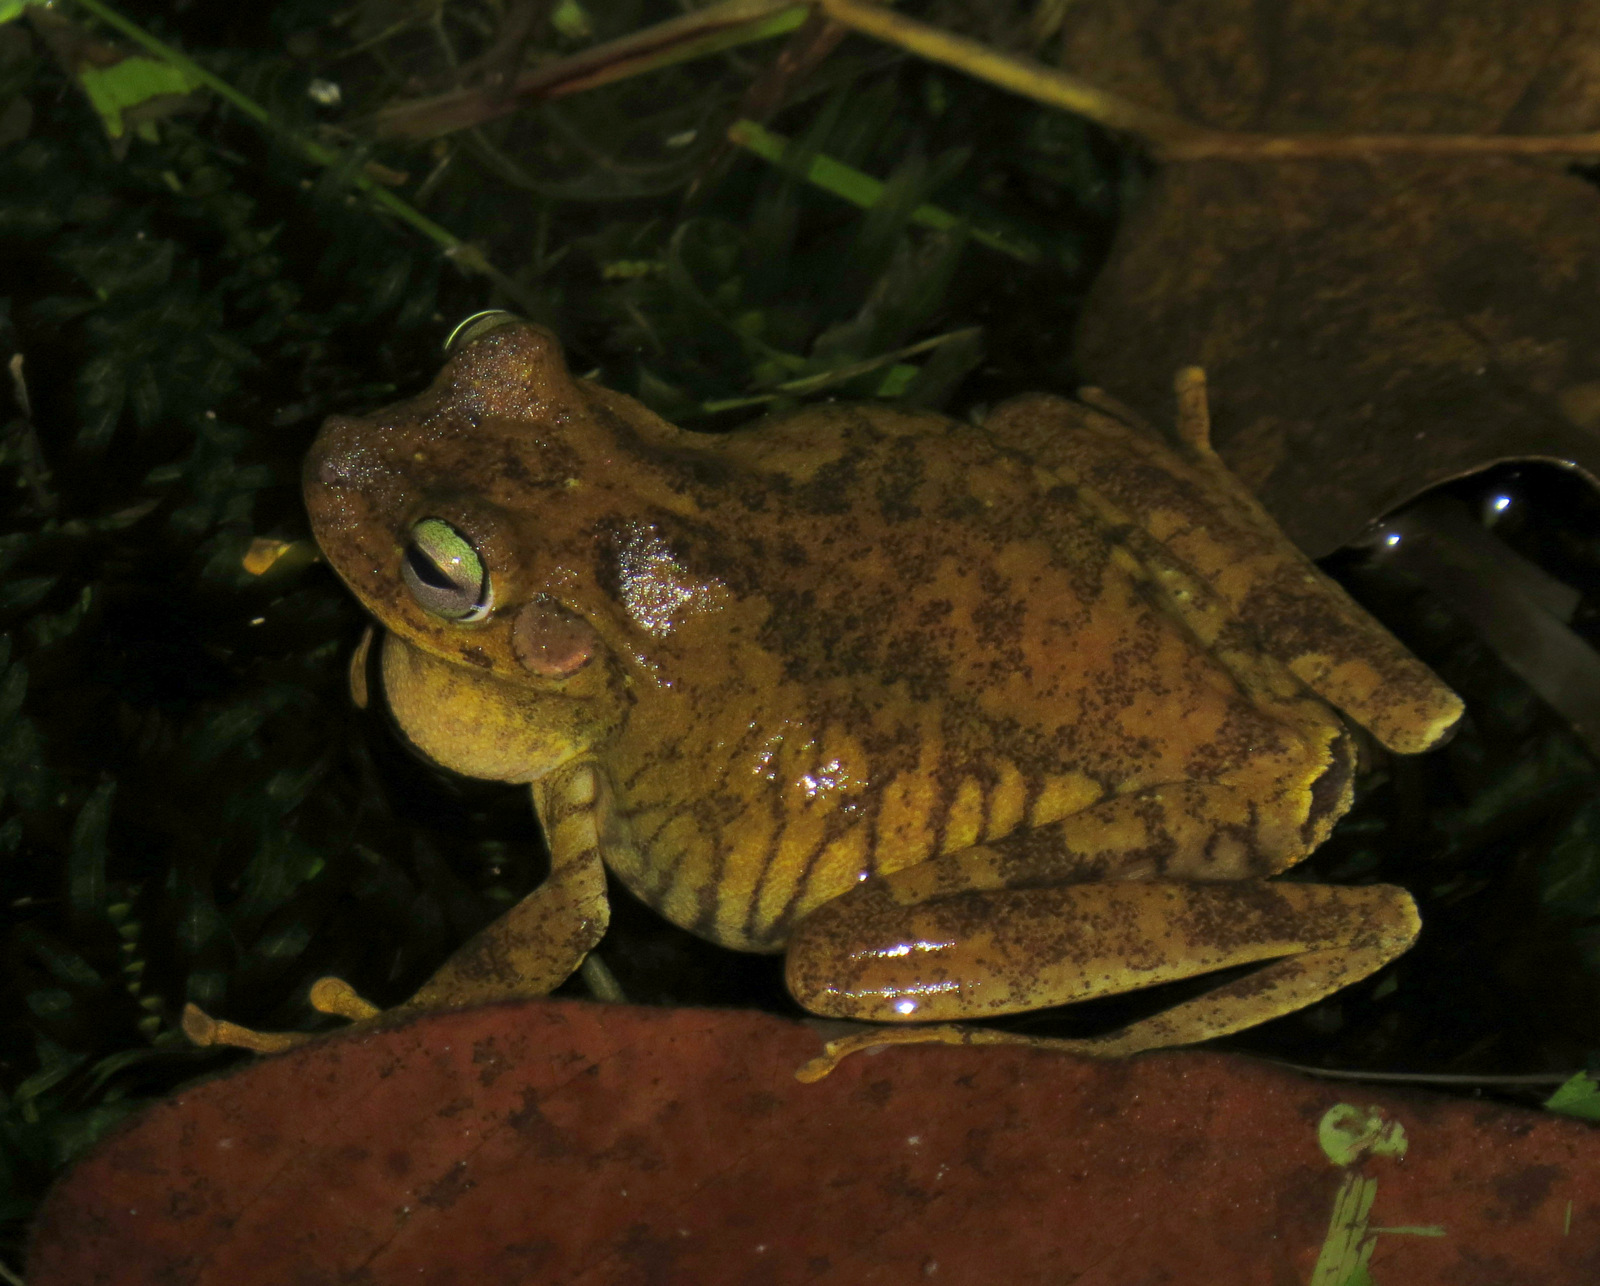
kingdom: Animalia
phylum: Chordata
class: Amphibia
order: Anura
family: Hylidae
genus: Boana
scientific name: Boana platanera
